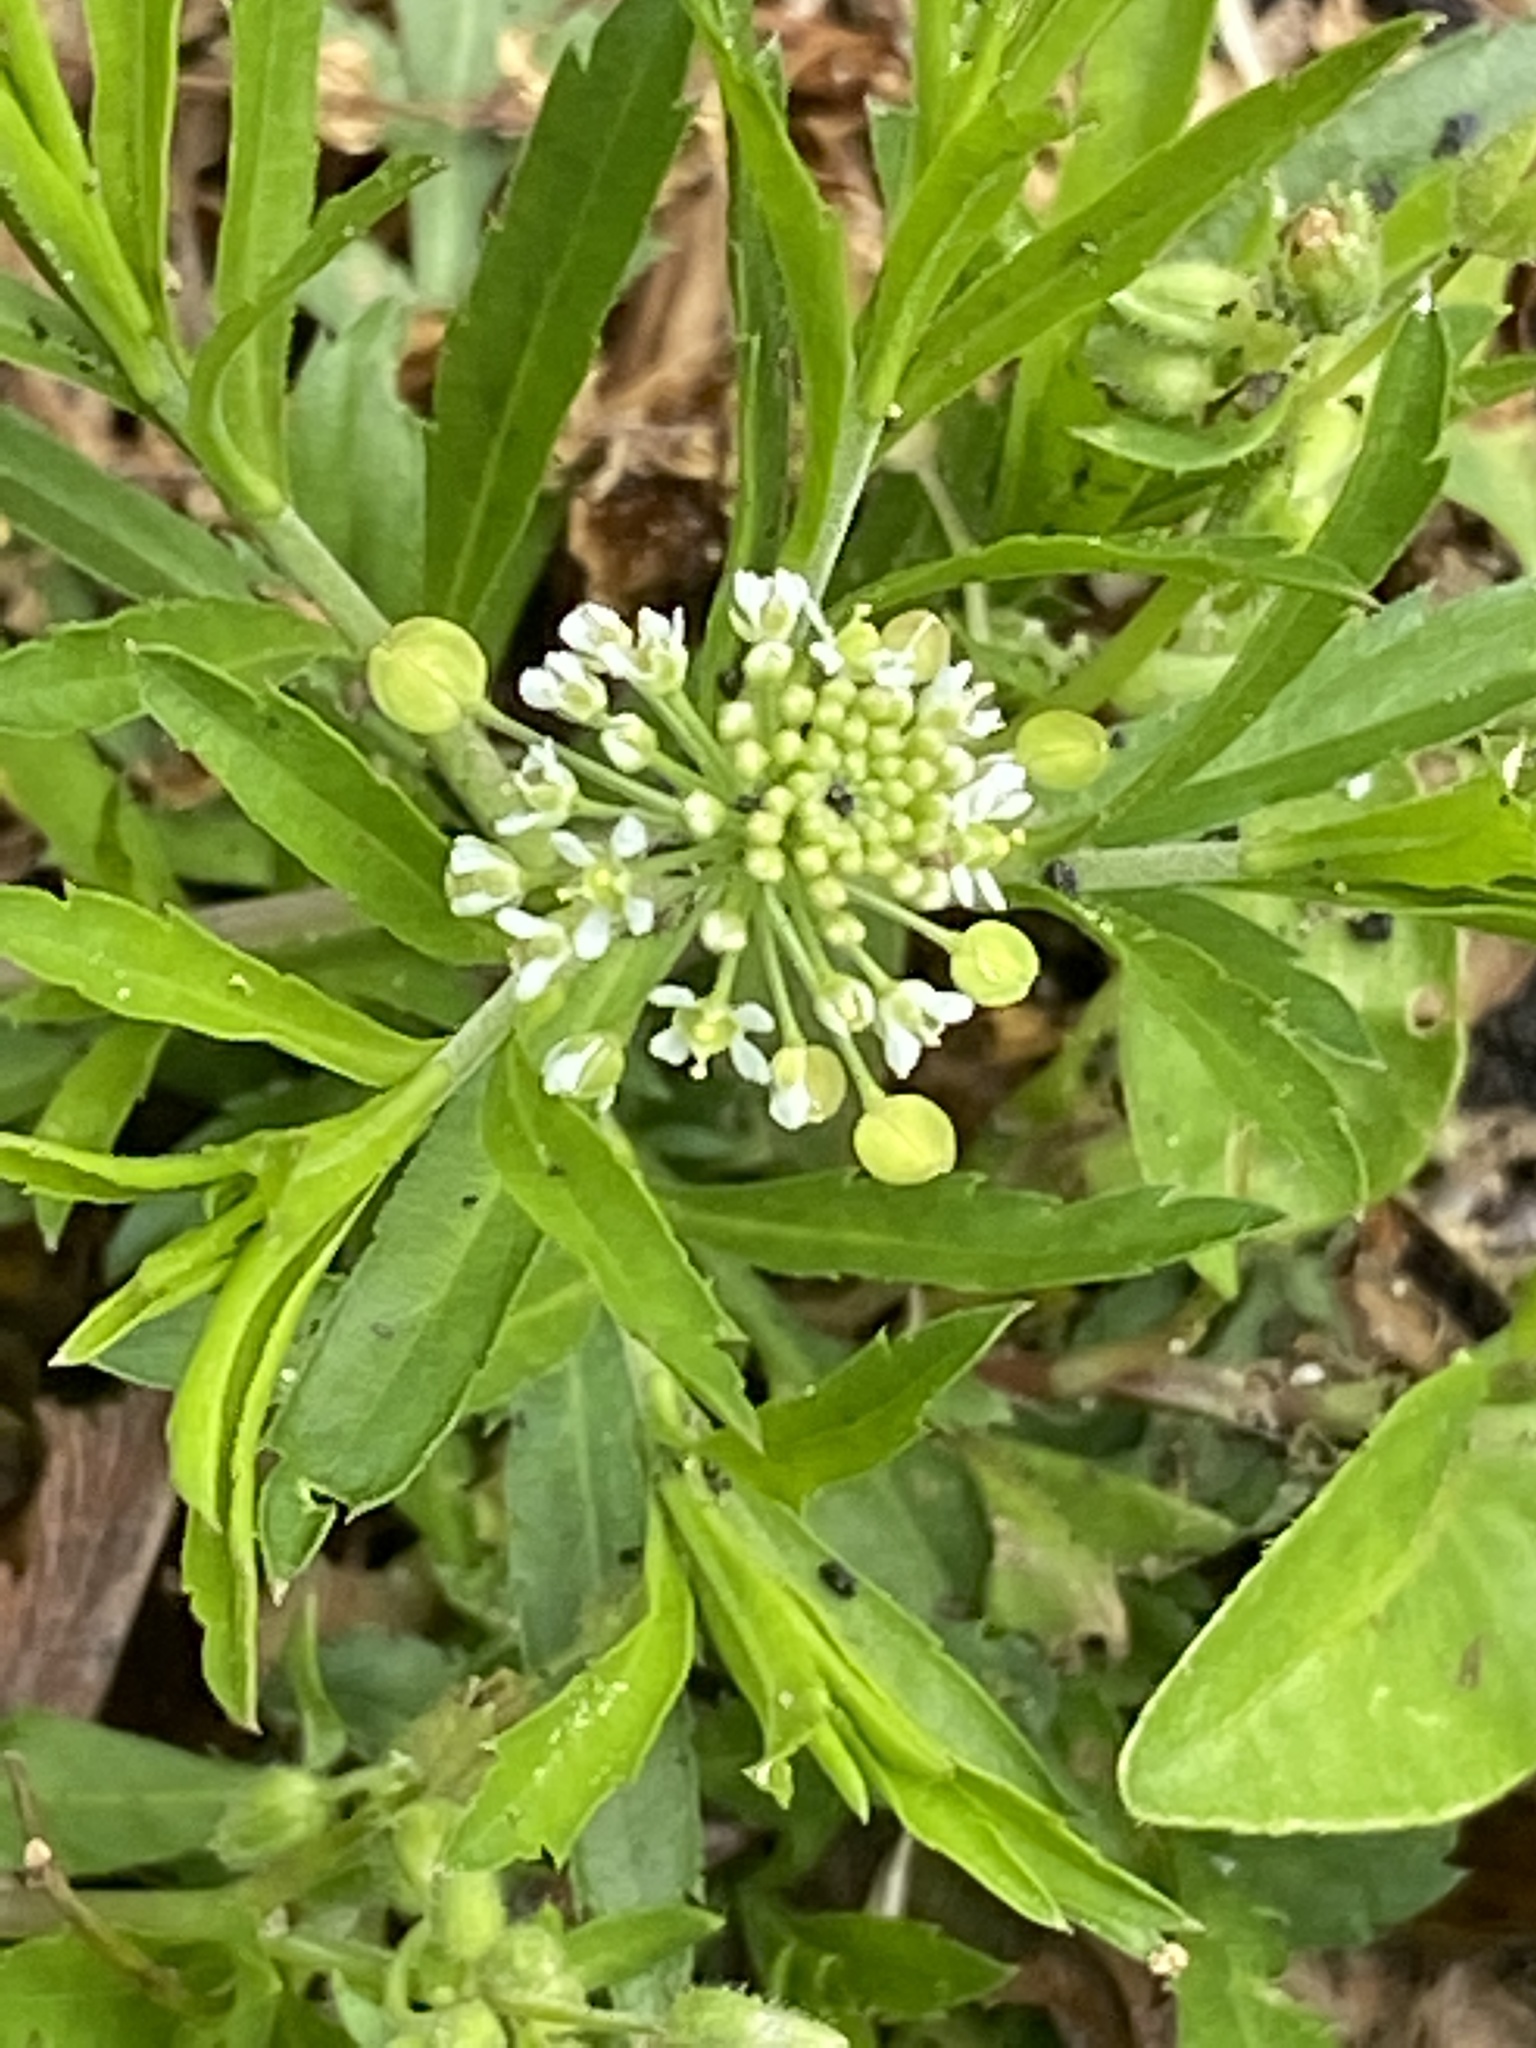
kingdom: Plantae
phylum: Tracheophyta
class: Magnoliopsida
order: Brassicales
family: Brassicaceae
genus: Lepidium
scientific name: Lepidium virginicum
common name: Least pepperwort
